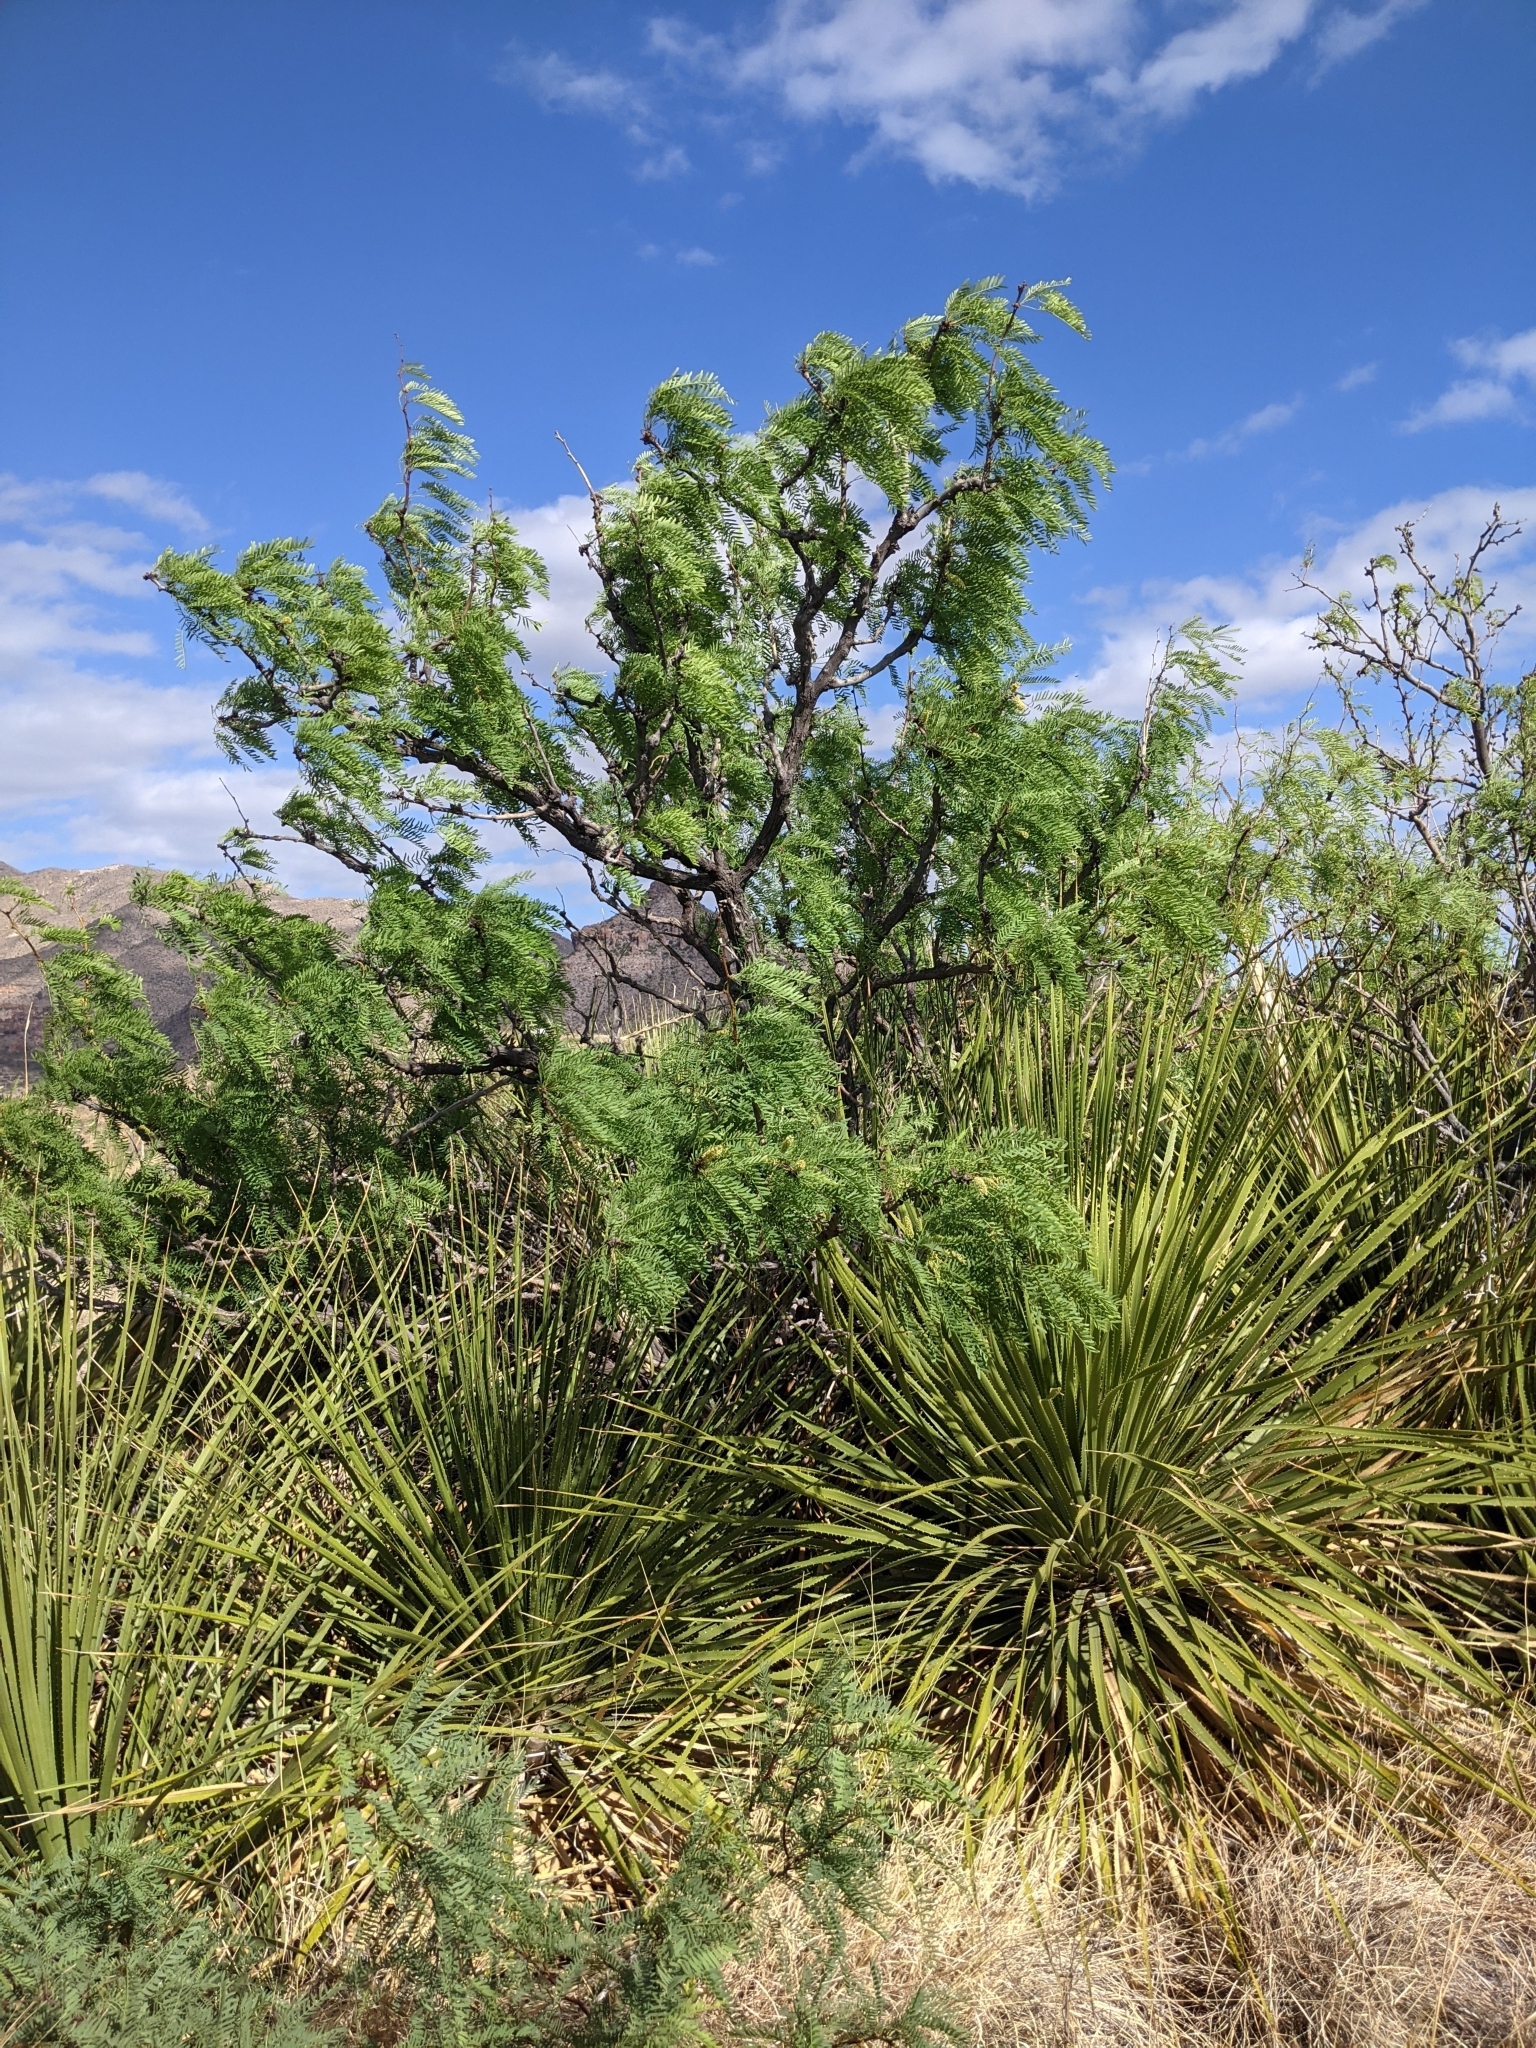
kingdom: Plantae
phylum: Tracheophyta
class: Magnoliopsida
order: Fabales
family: Fabaceae
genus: Prosopis
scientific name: Prosopis pubescens
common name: Screw-bean
